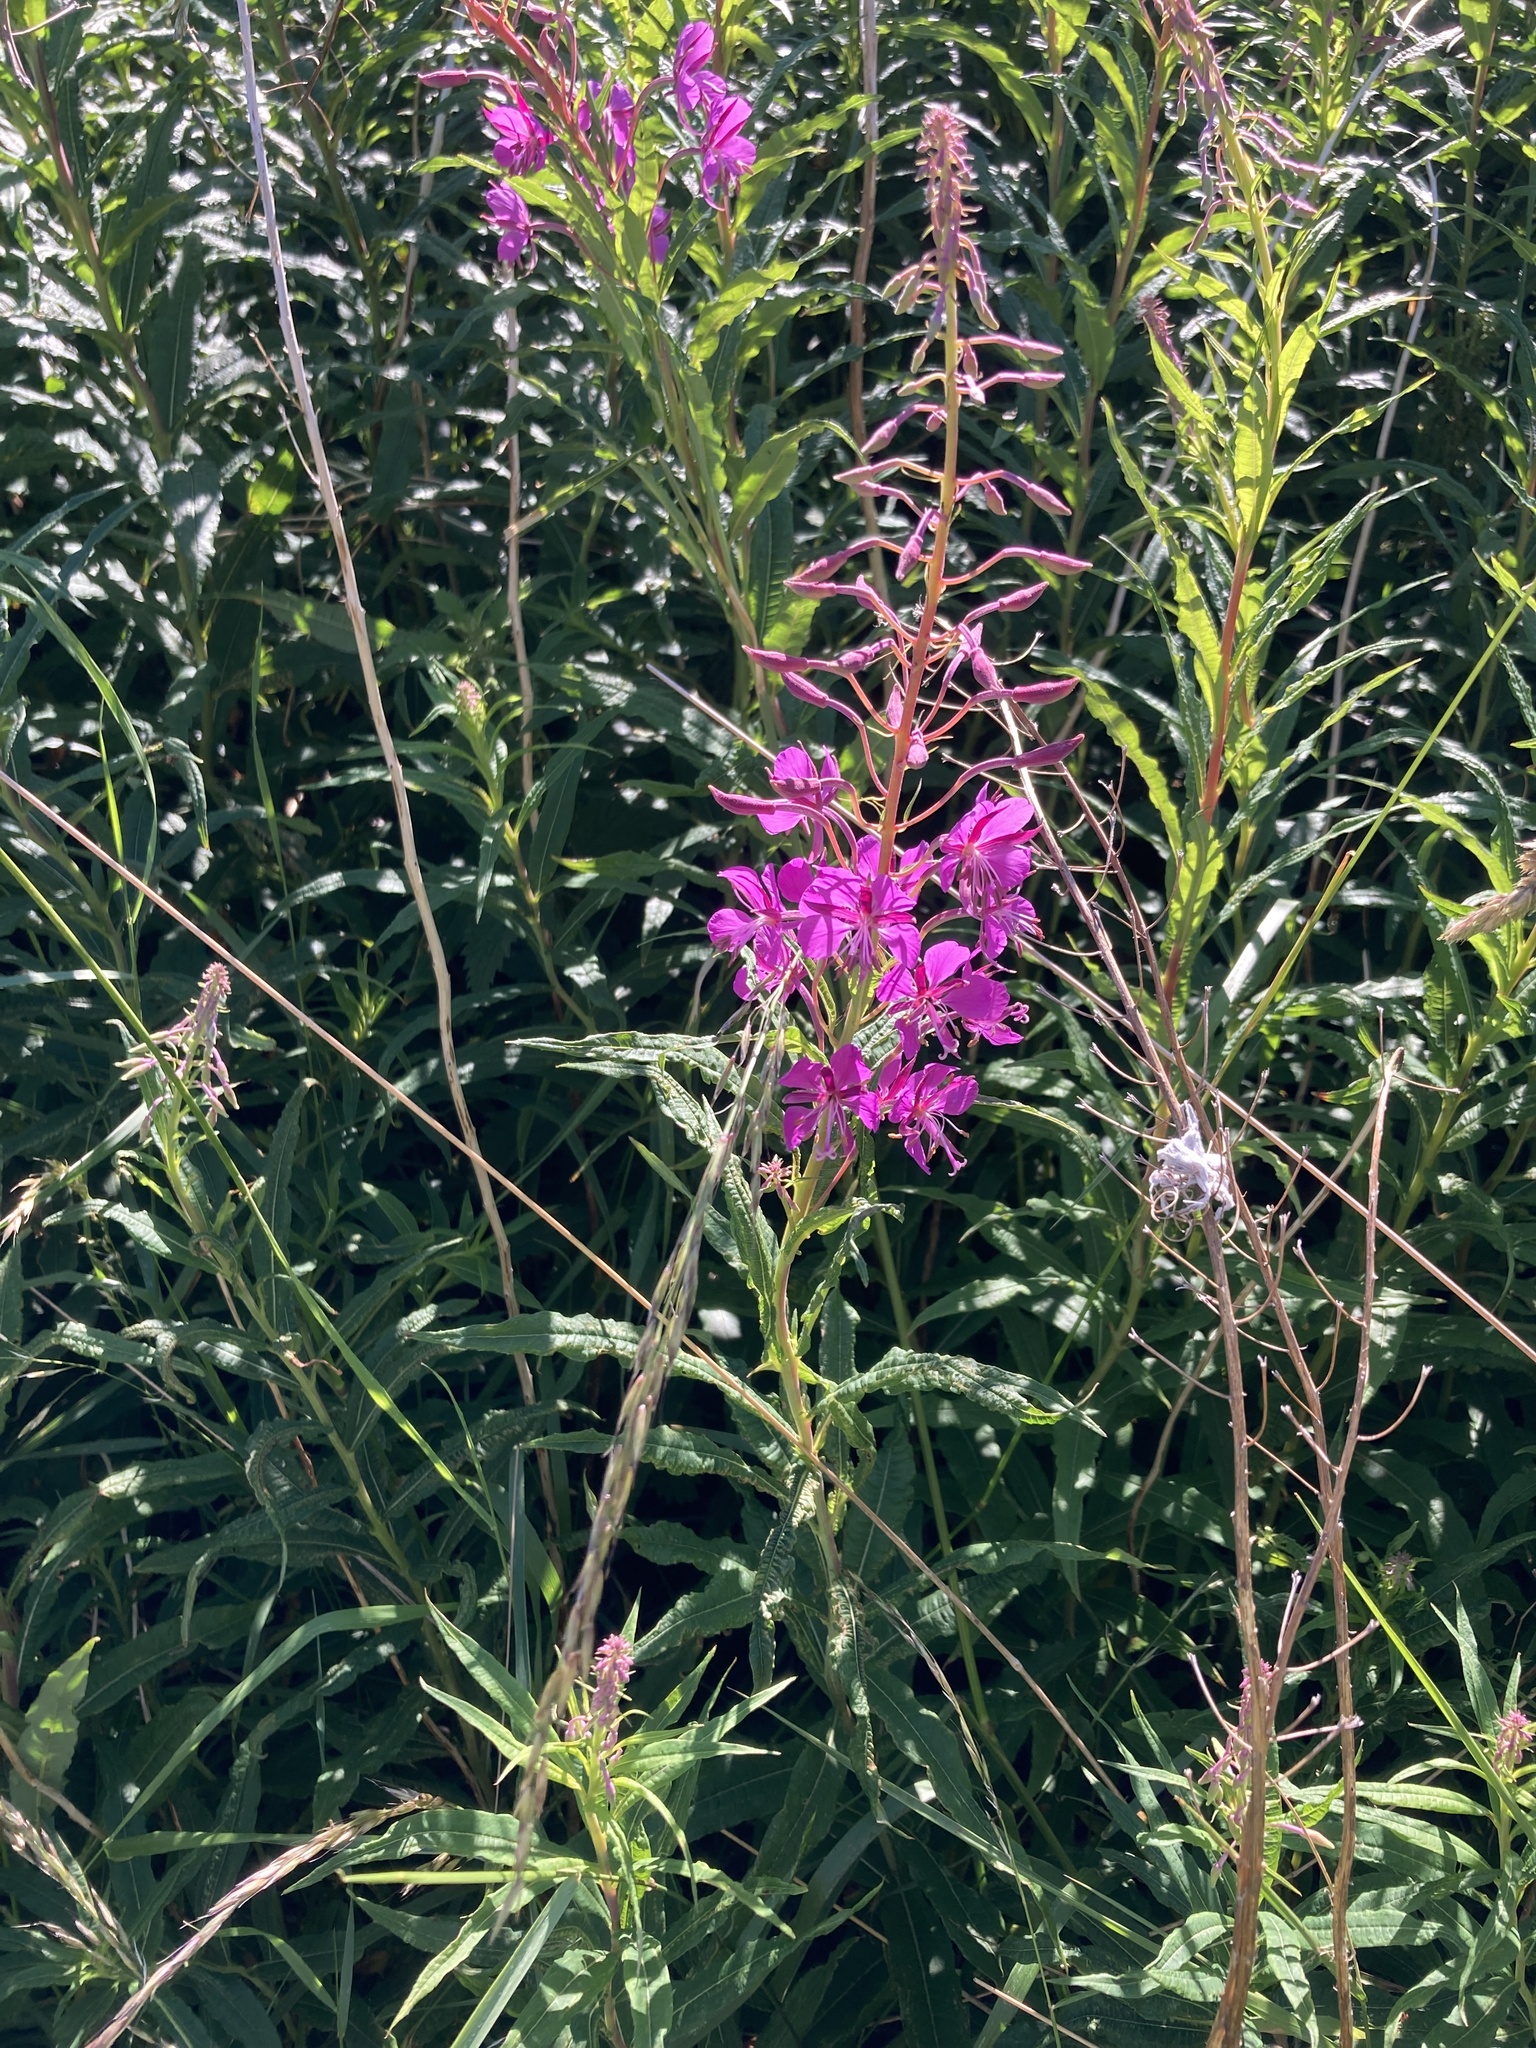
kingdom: Plantae
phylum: Tracheophyta
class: Magnoliopsida
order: Myrtales
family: Onagraceae
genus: Chamaenerion
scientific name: Chamaenerion angustifolium
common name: Fireweed
